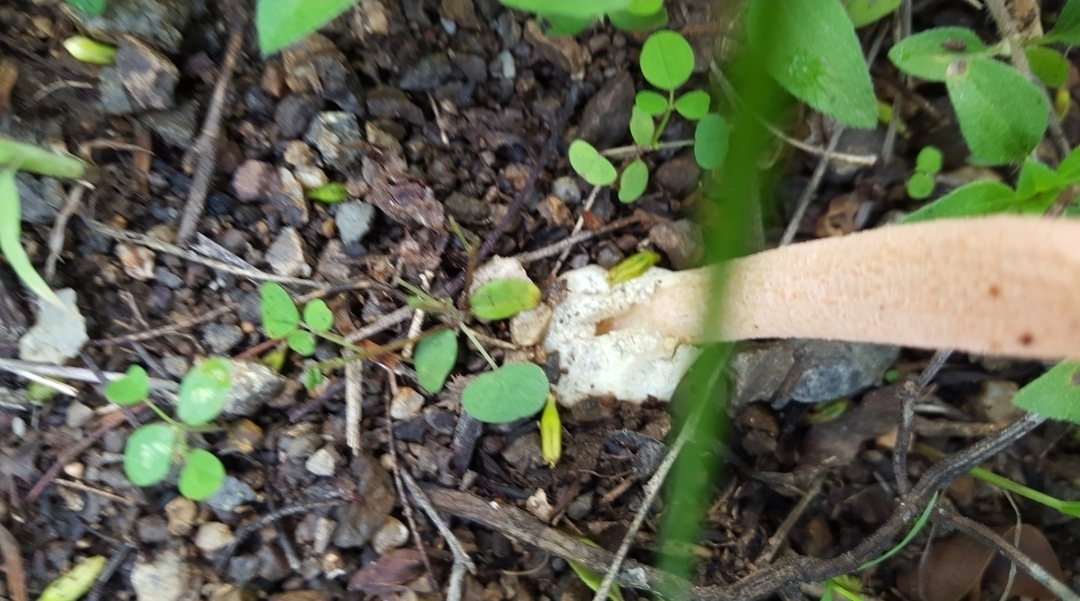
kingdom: Fungi
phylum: Basidiomycota
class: Agaricomycetes
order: Phallales
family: Phallaceae
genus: Lysurus
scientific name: Lysurus periphragmoides
